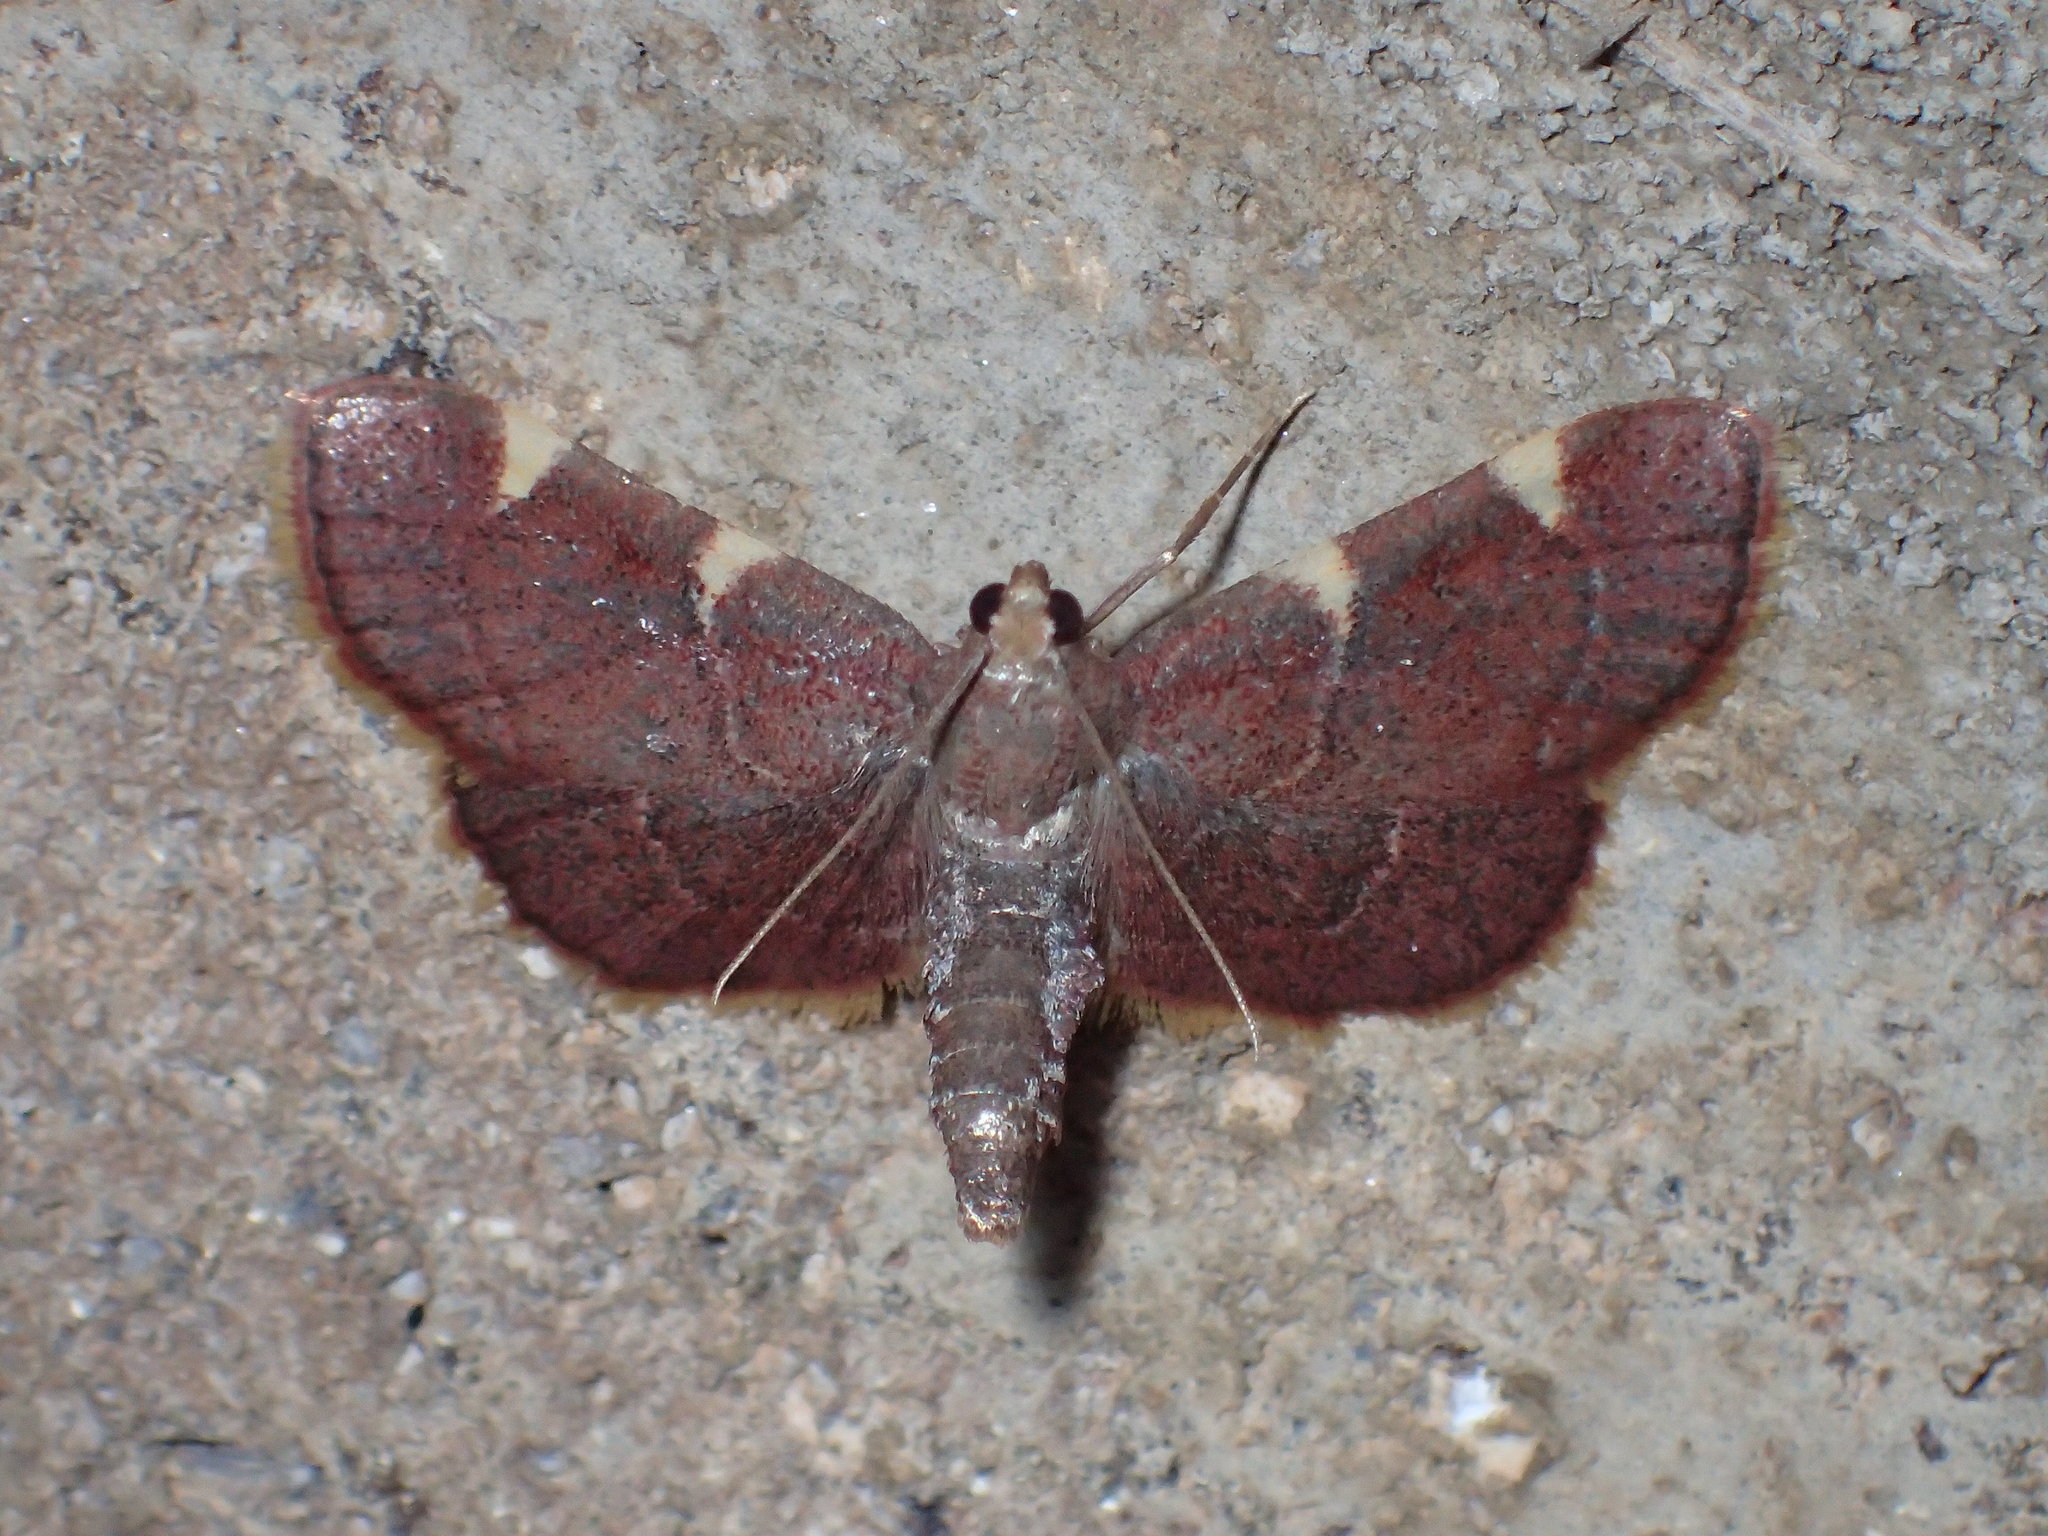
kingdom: Animalia
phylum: Arthropoda
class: Insecta
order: Lepidoptera
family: Pyralidae
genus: Hypsopygia
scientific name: Hypsopygia olinalis
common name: Yellow-fringed dolichomia moth
